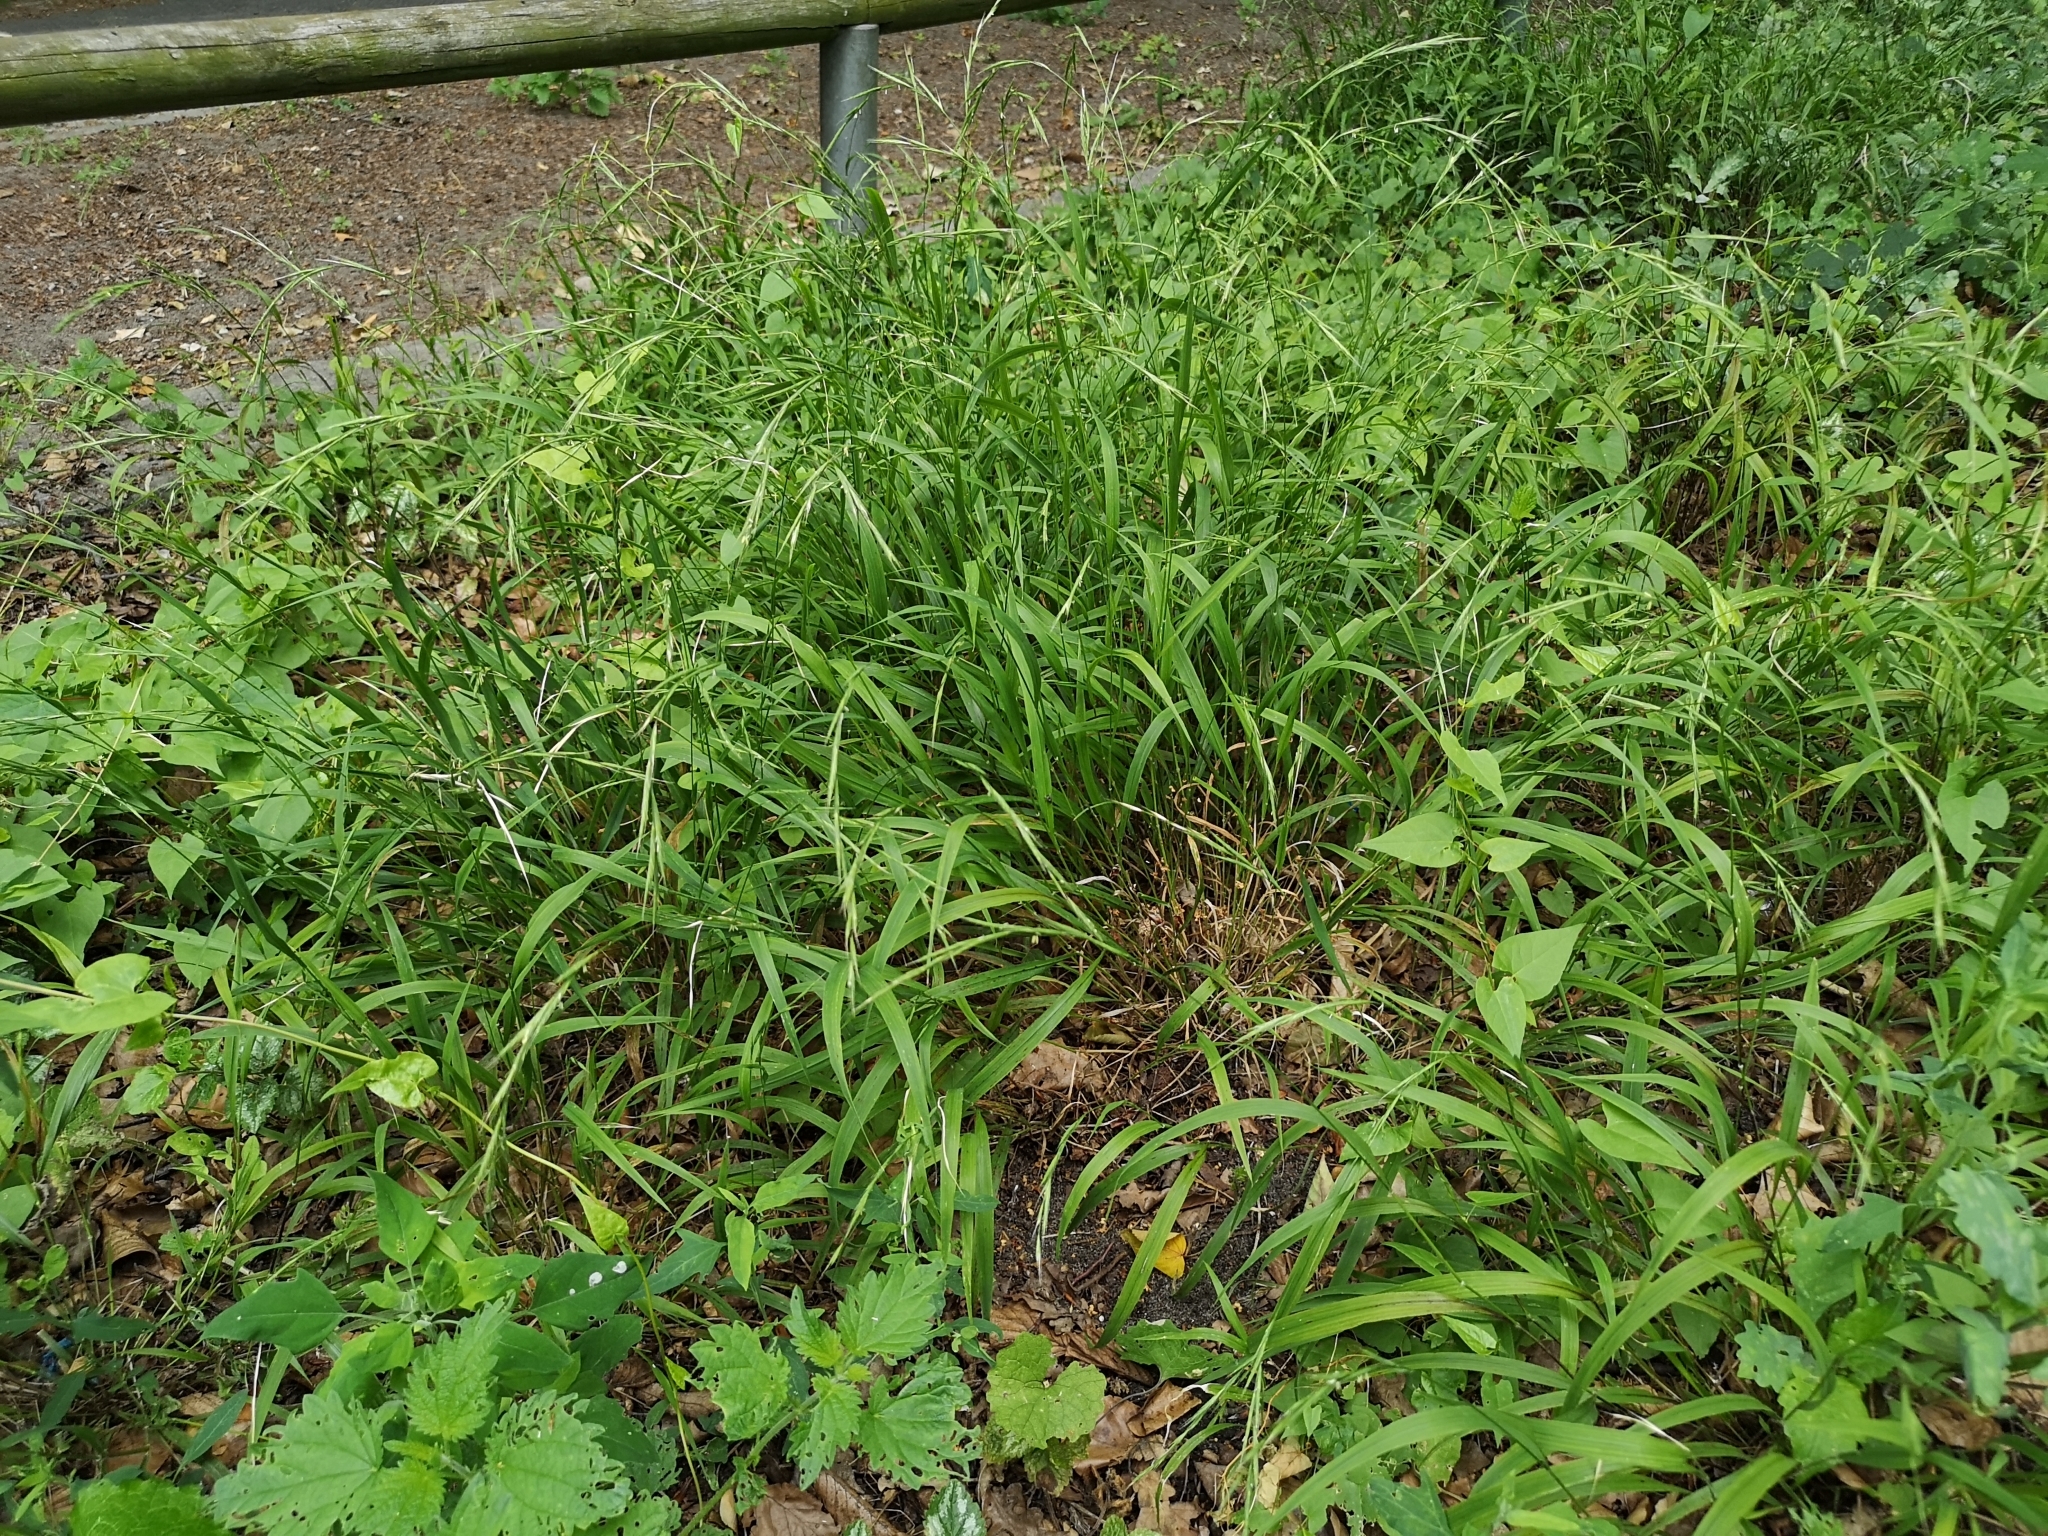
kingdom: Plantae
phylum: Tracheophyta
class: Liliopsida
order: Poales
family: Poaceae
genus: Brachypodium
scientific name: Brachypodium sylvaticum
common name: False-brome
